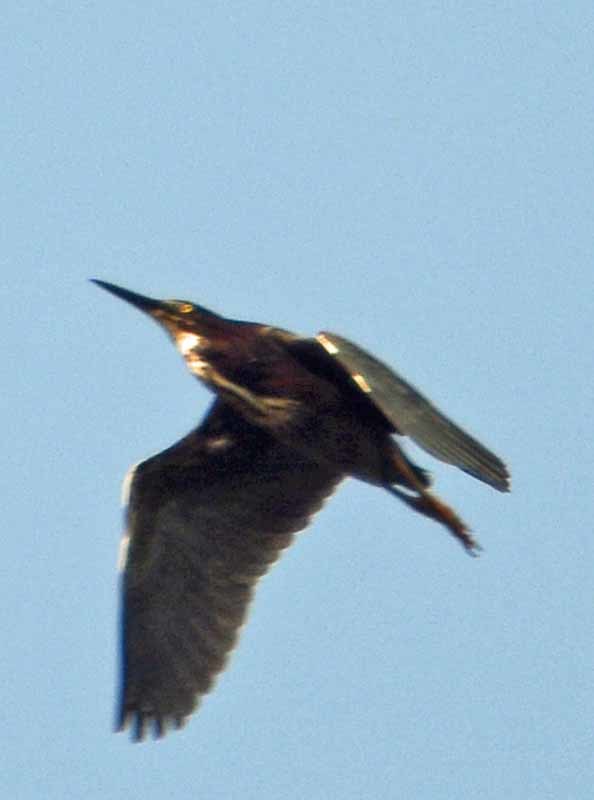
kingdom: Animalia
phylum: Chordata
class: Aves
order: Pelecaniformes
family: Ardeidae
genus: Butorides
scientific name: Butorides virescens
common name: Green heron
